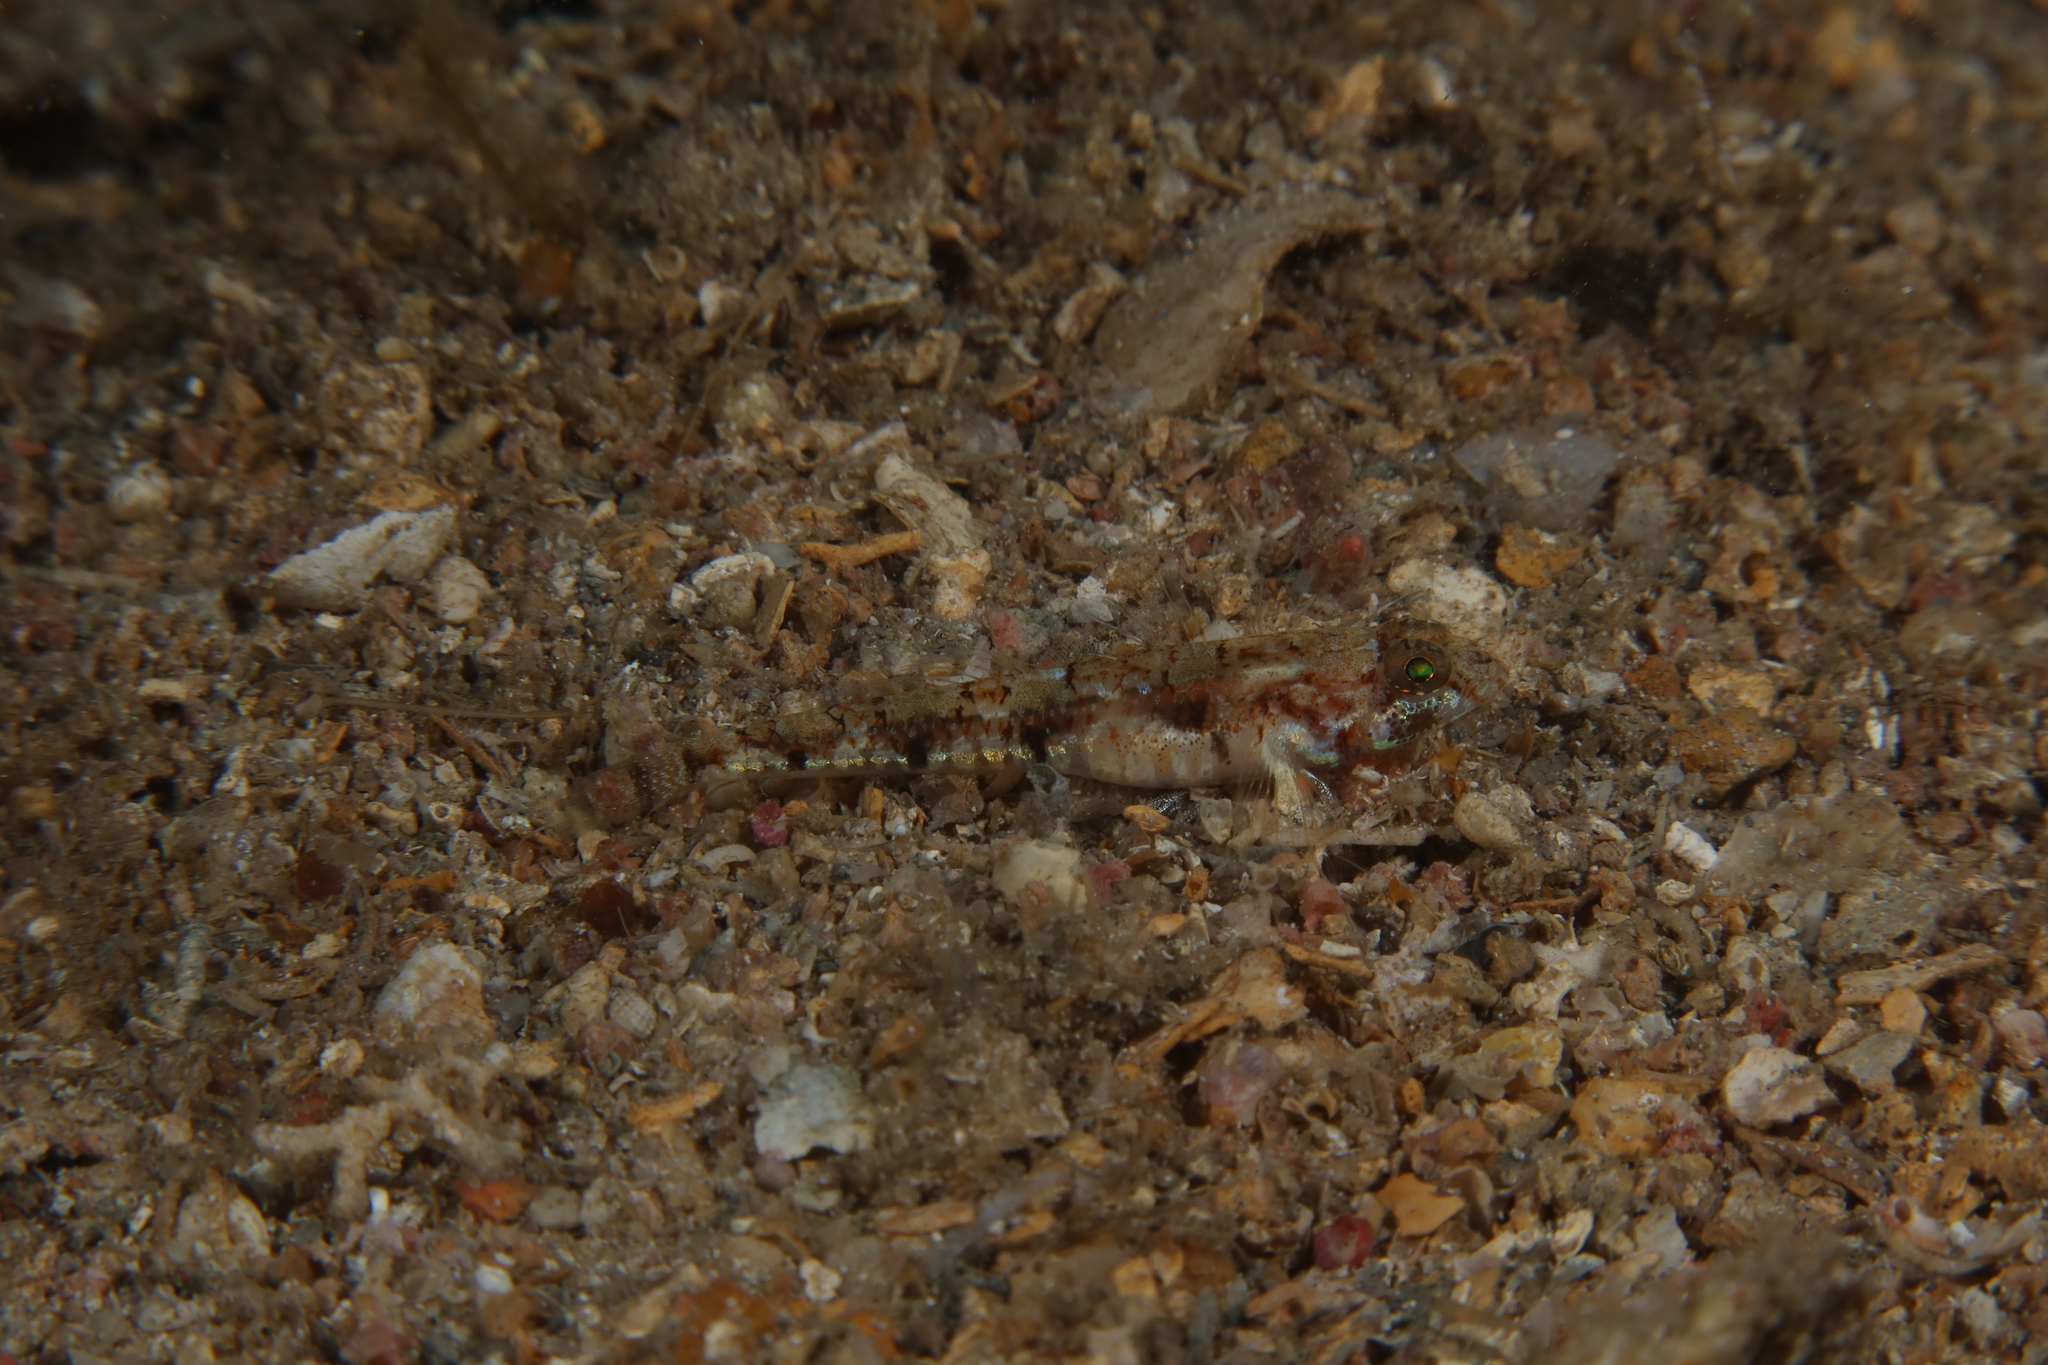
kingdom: Animalia
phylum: Chordata
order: Perciformes
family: Gobiidae
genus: Buenia
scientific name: Buenia affinis
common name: De buen's goby
